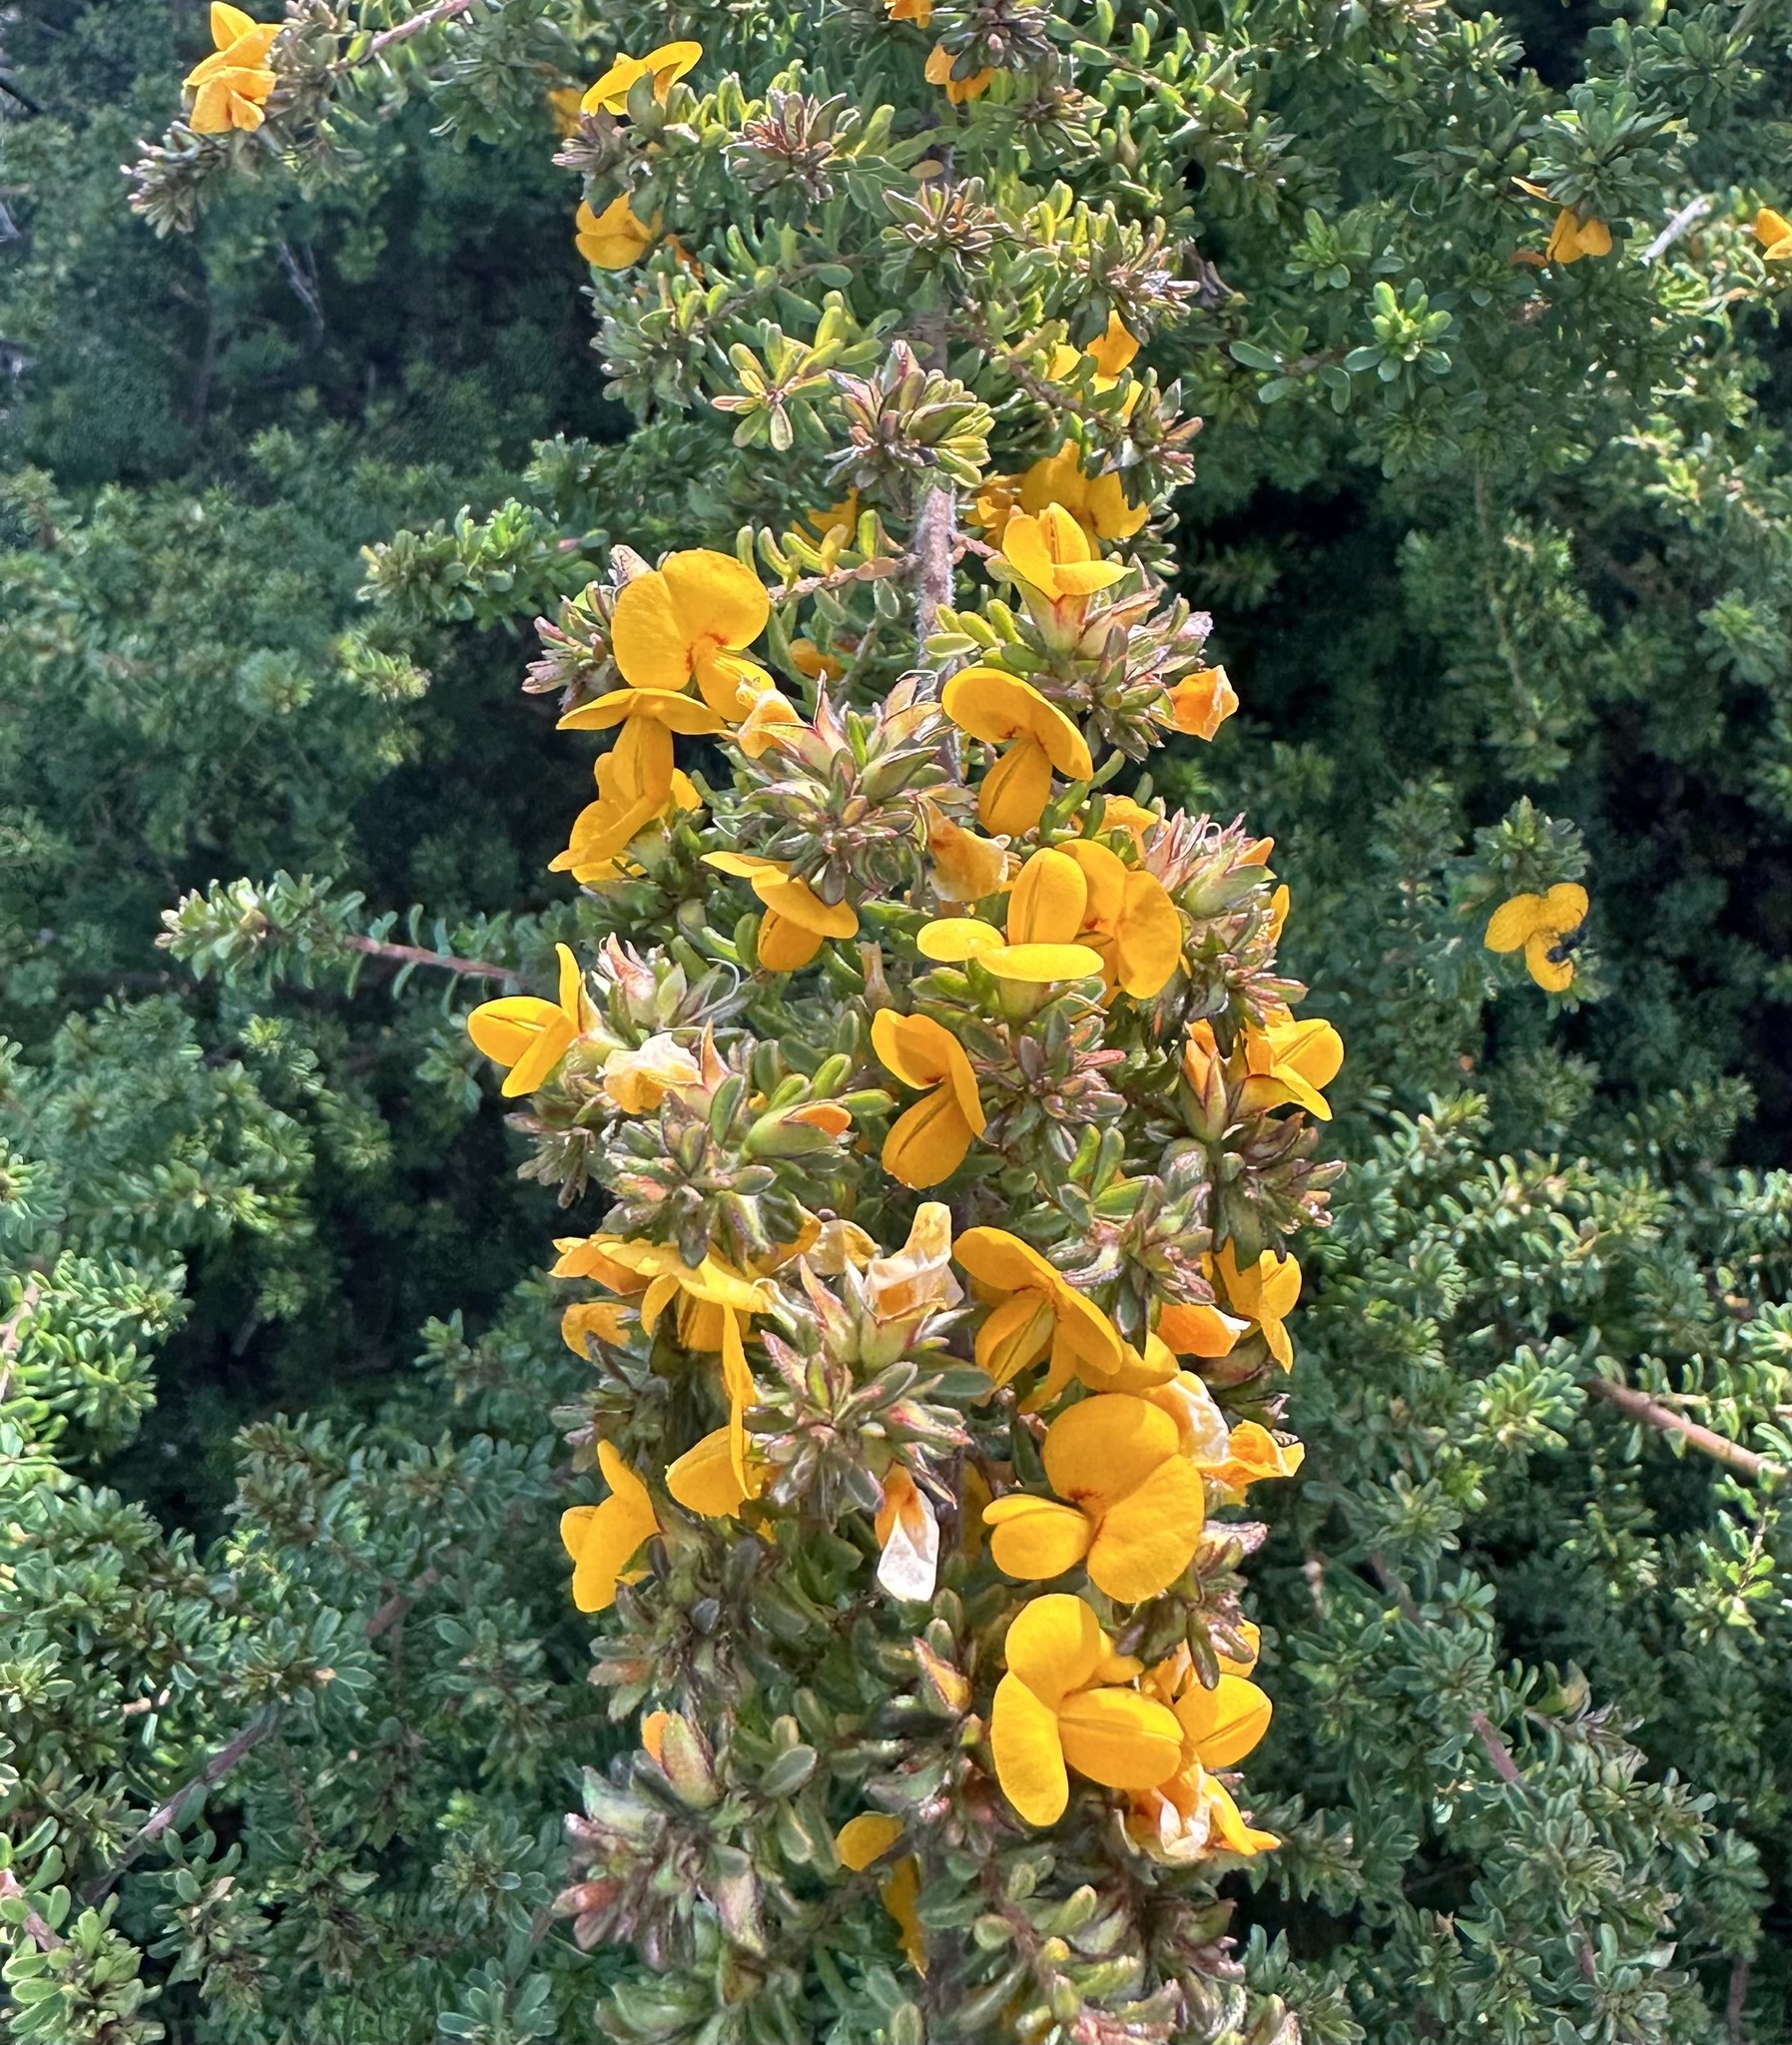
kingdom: Plantae
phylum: Tracheophyta
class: Magnoliopsida
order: Fabales
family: Fabaceae
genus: Pultenaea
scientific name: Pultenaea villosa
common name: Bronze bush-pea
